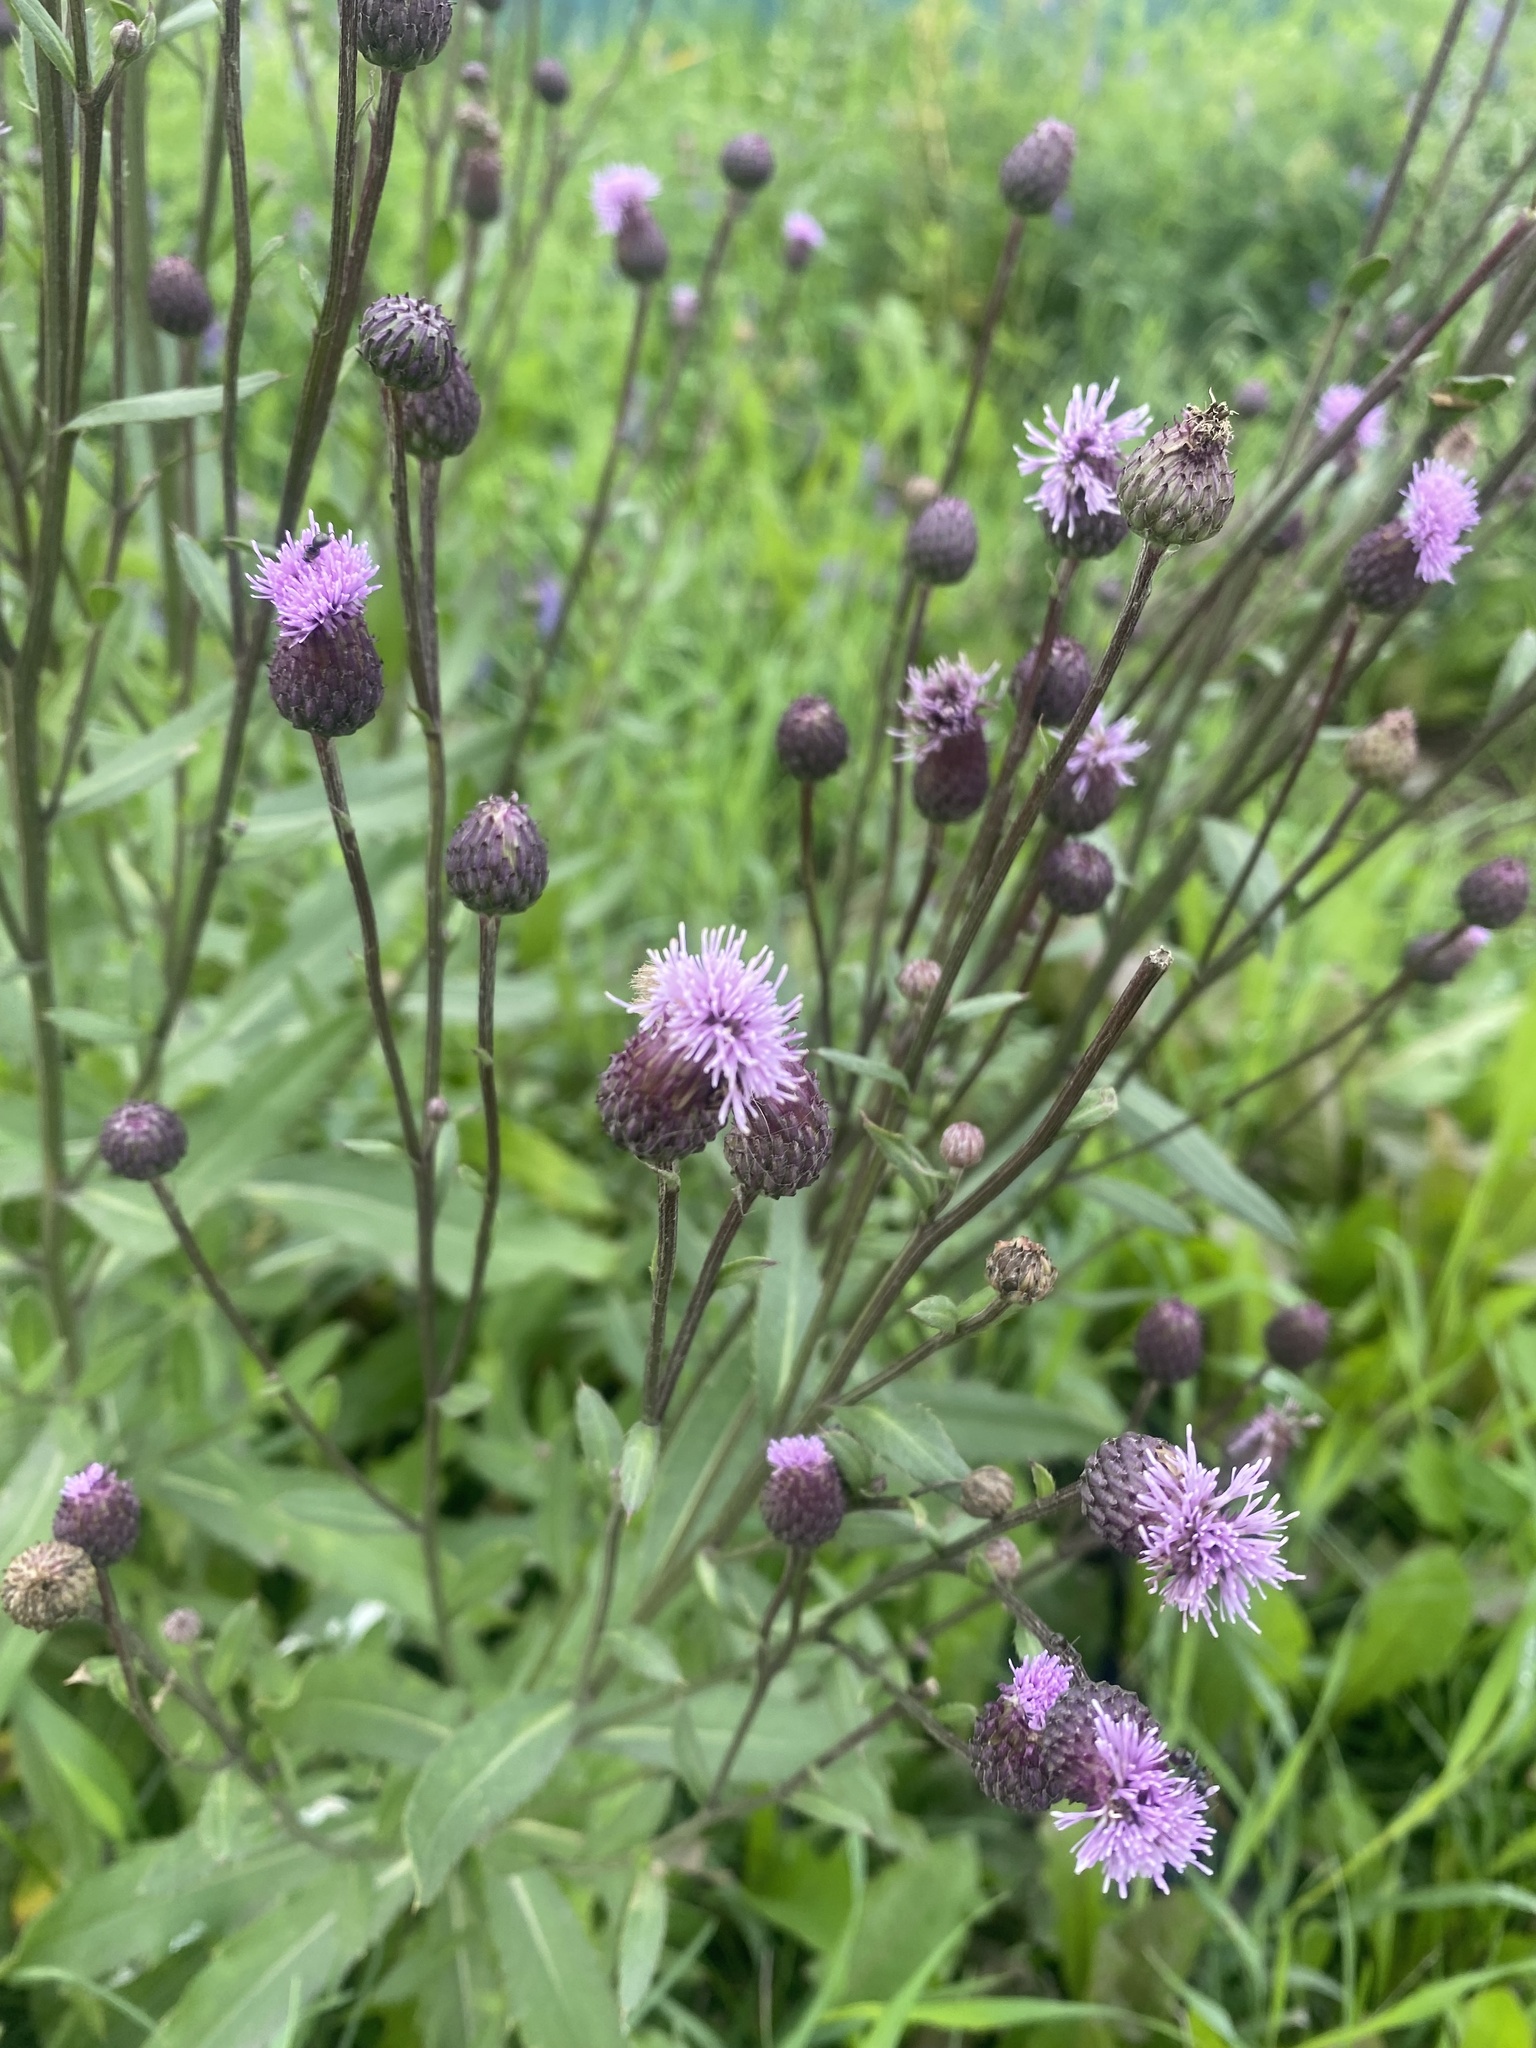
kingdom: Plantae
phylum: Tracheophyta
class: Magnoliopsida
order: Asterales
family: Asteraceae
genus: Cirsium
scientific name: Cirsium arvense
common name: Creeping thistle
